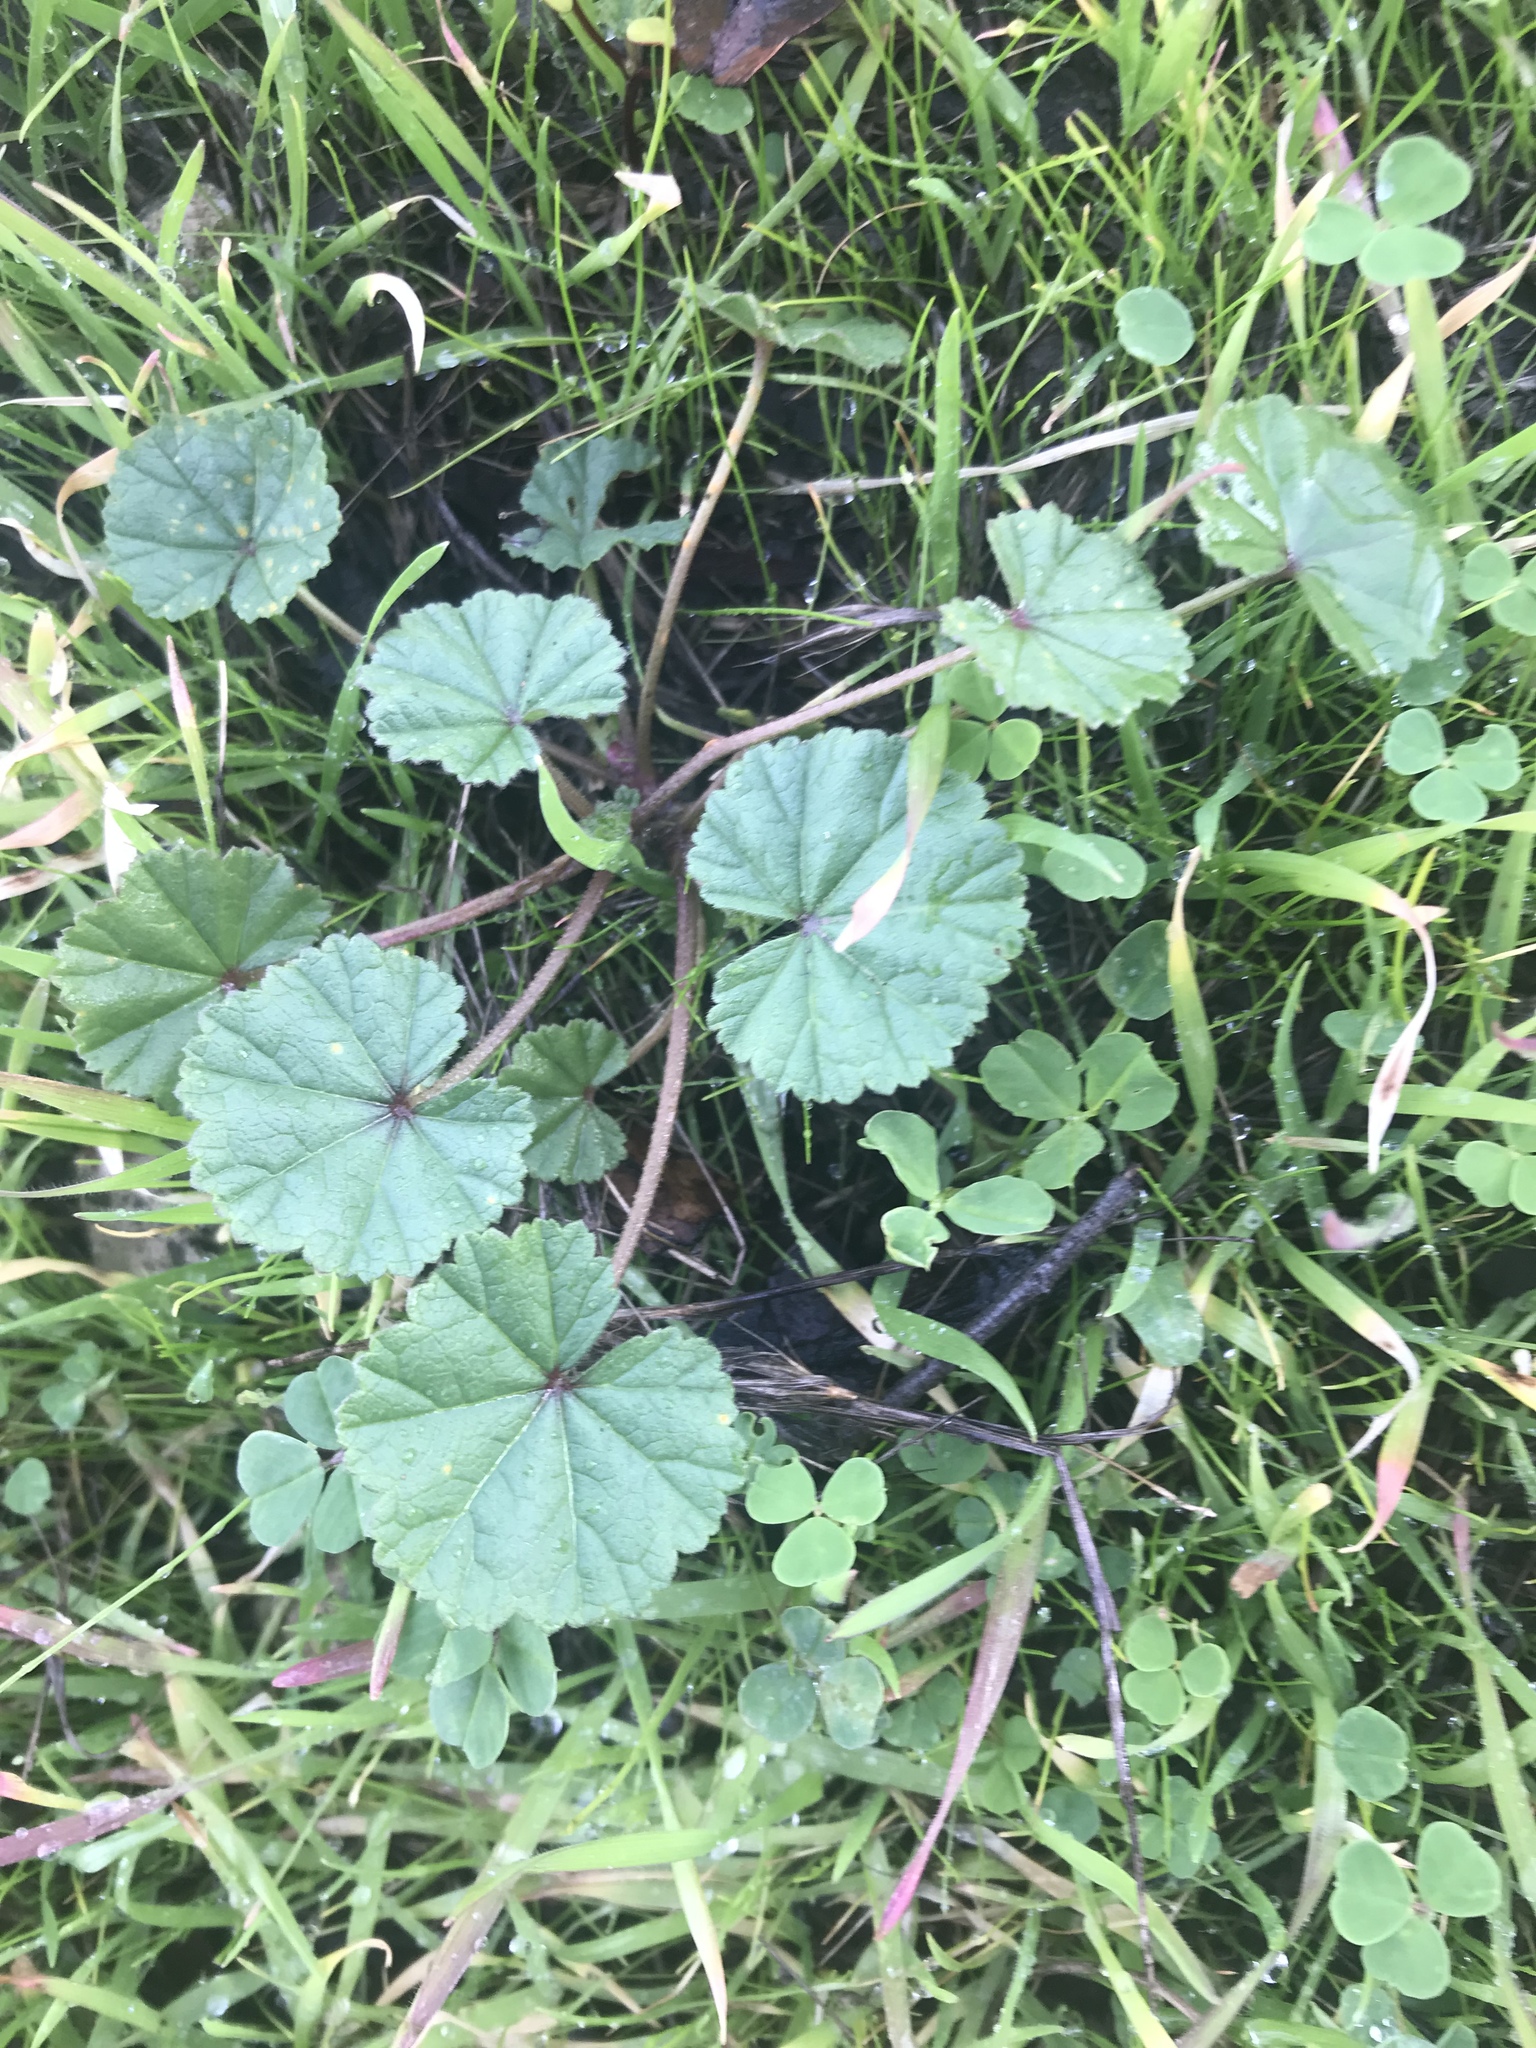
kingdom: Plantae
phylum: Tracheophyta
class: Magnoliopsida
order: Malvales
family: Malvaceae
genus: Malva
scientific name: Malva
